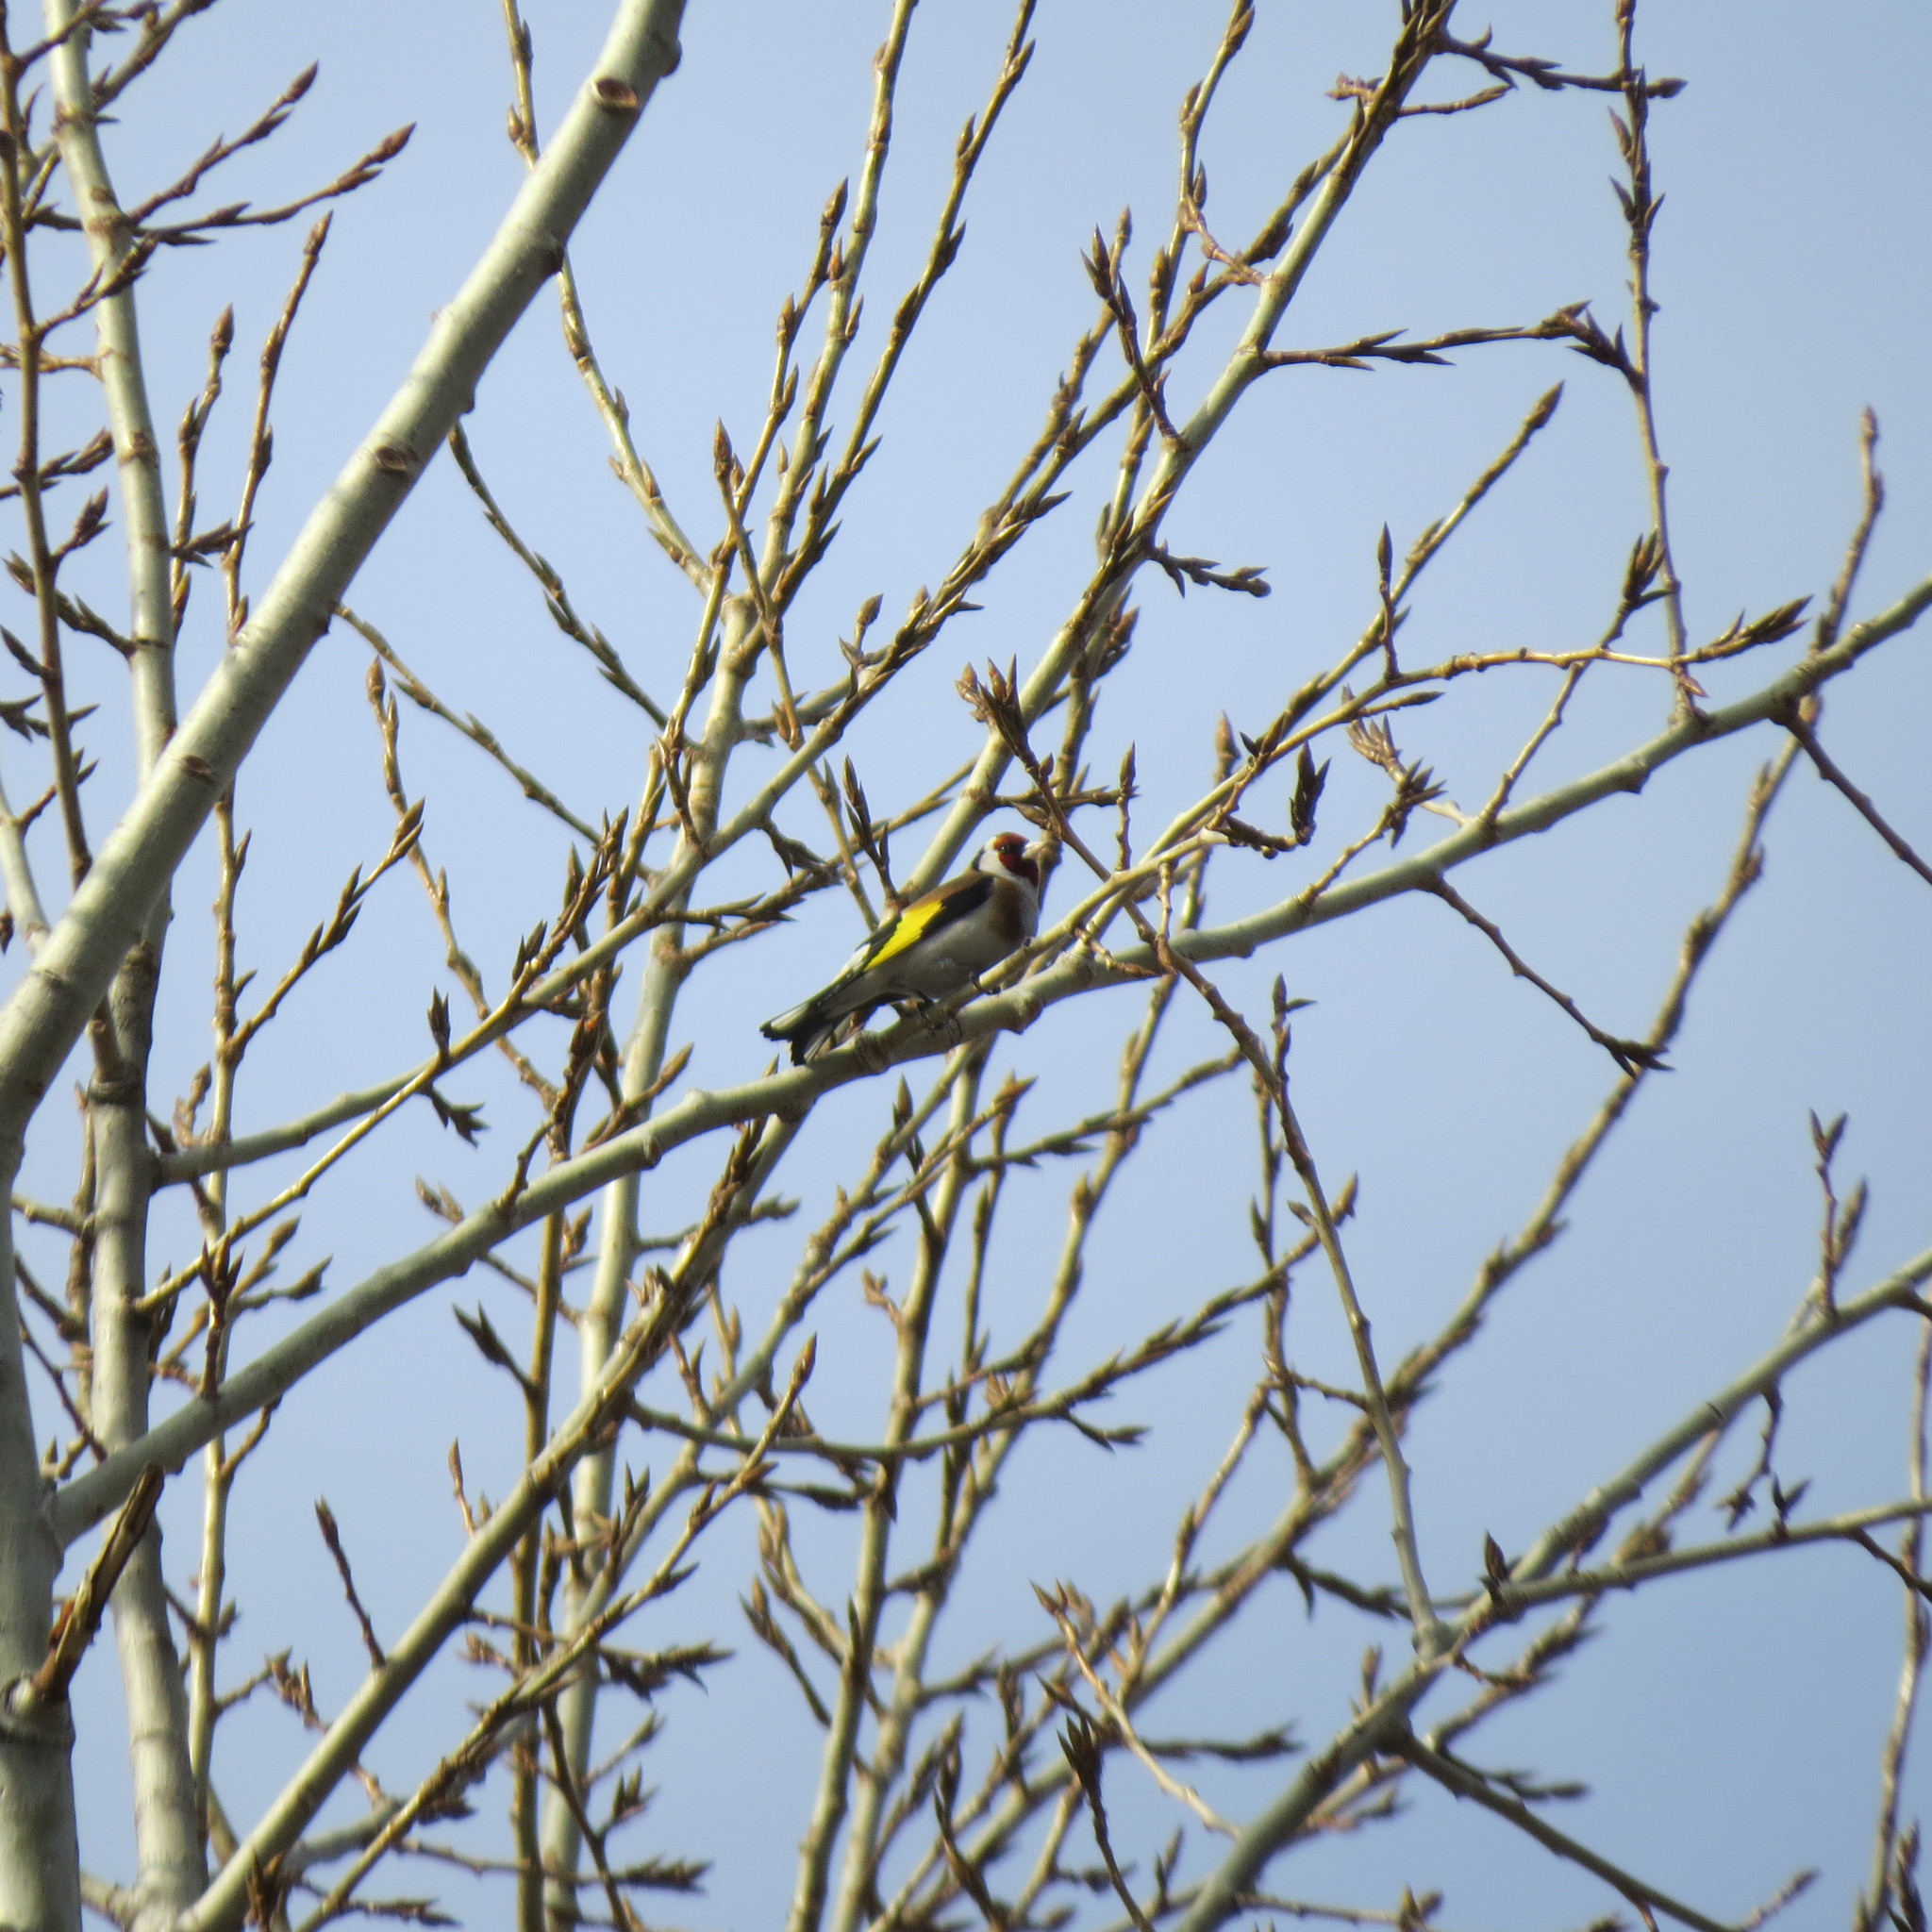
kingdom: Animalia
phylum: Chordata
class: Aves
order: Passeriformes
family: Fringillidae
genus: Carduelis
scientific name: Carduelis carduelis
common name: European goldfinch
